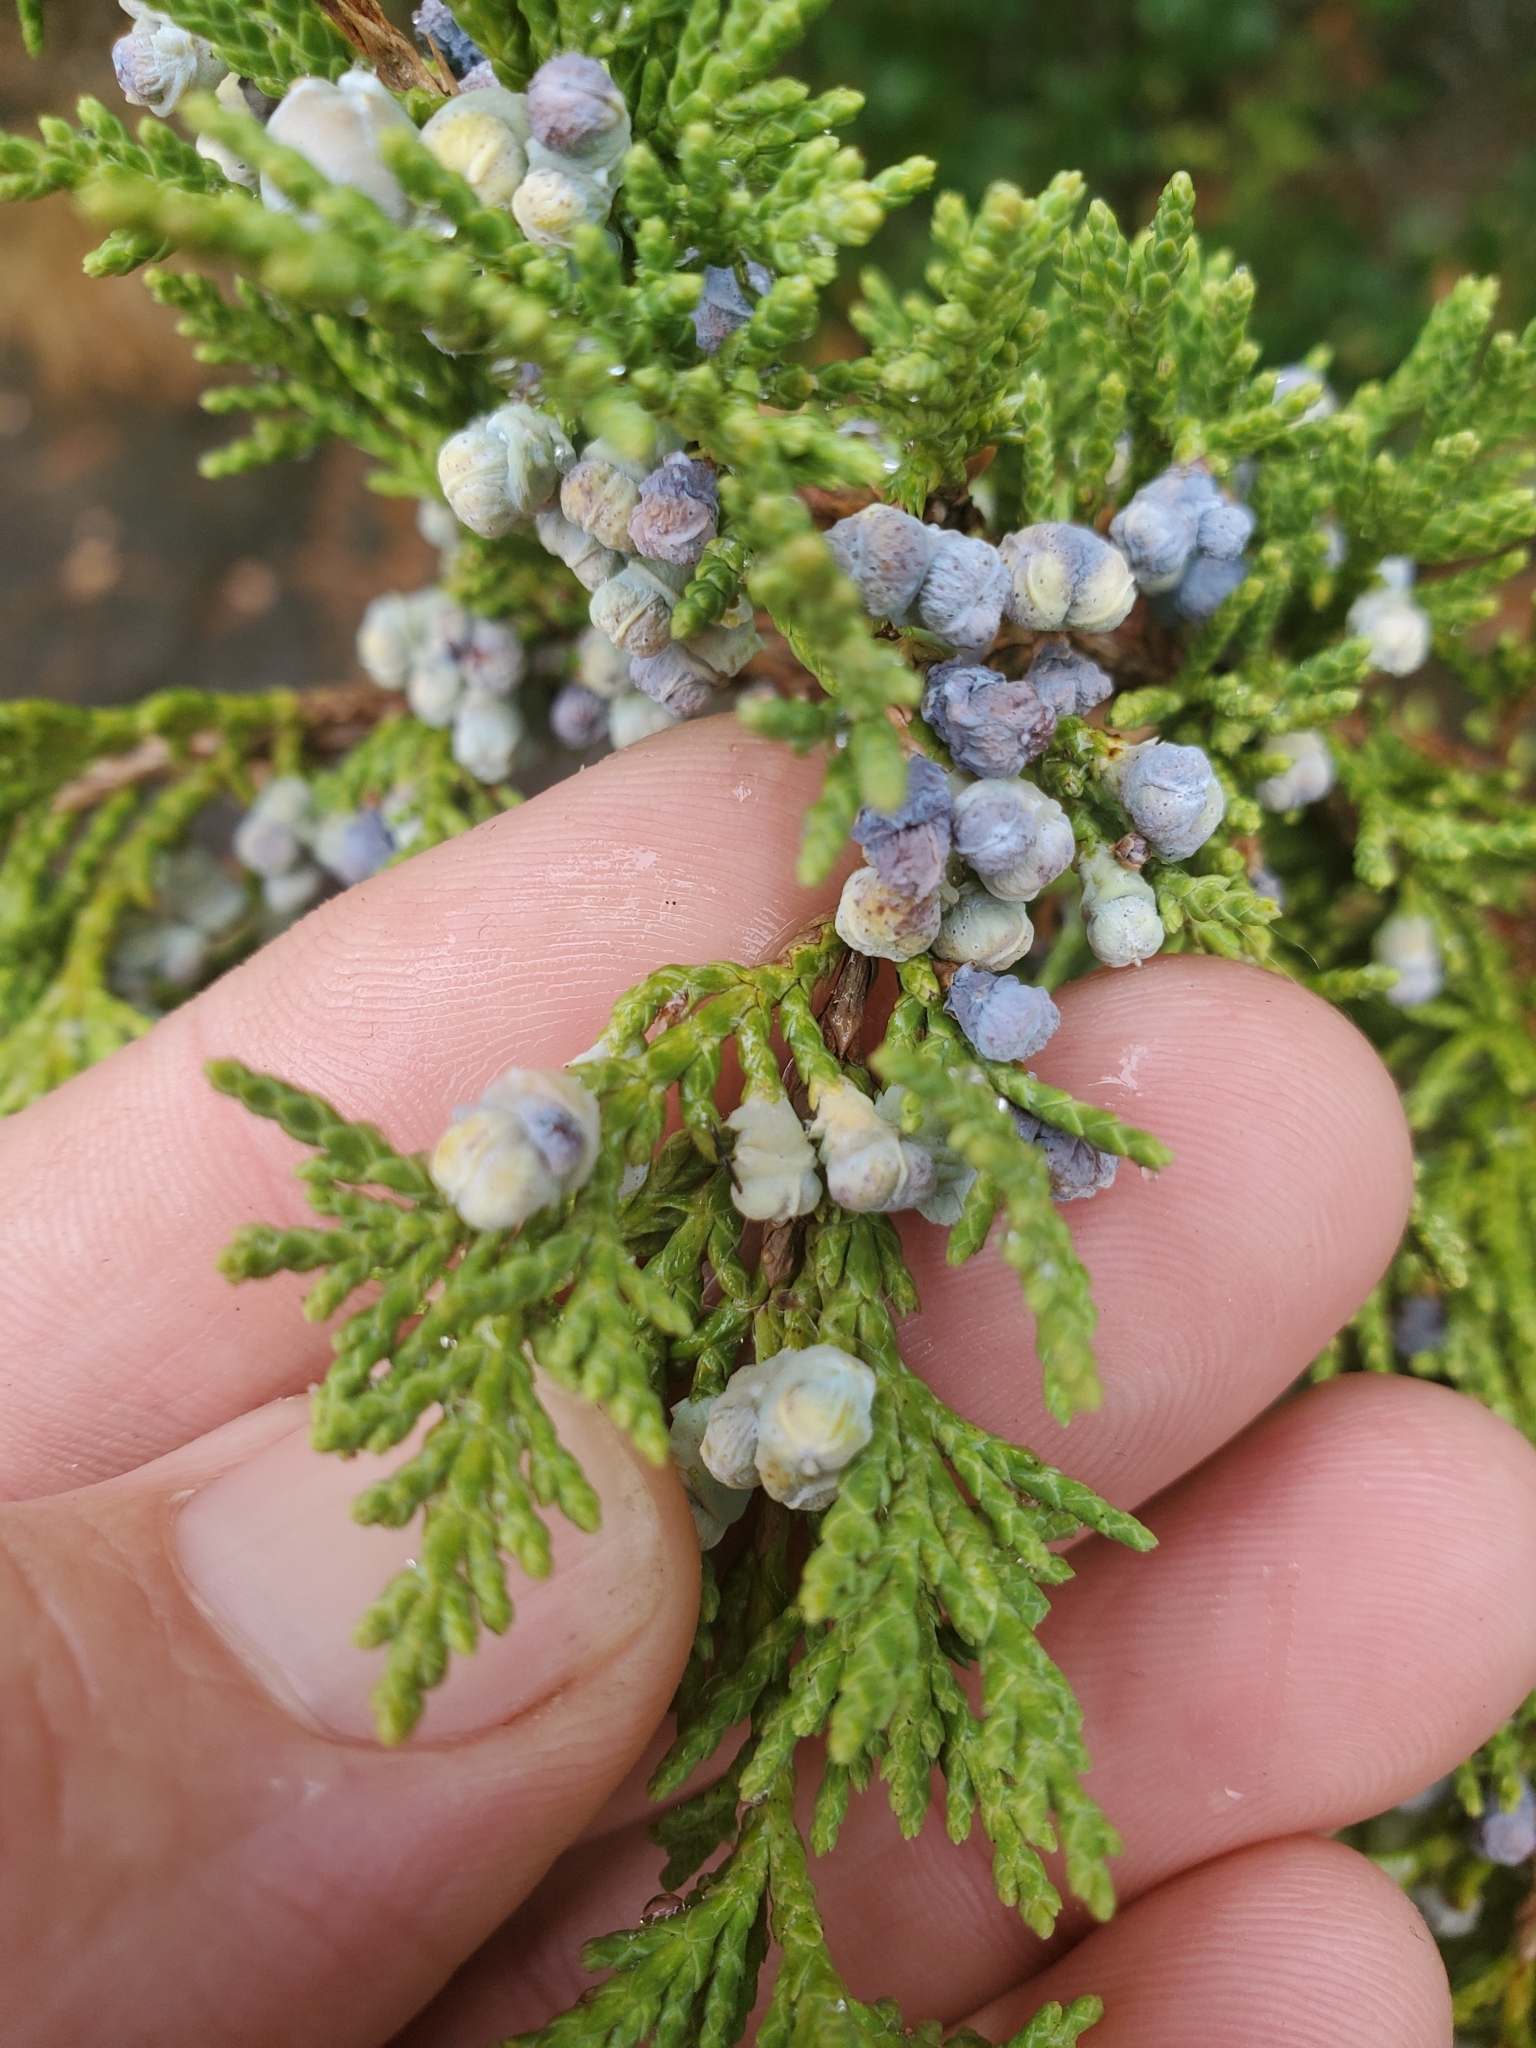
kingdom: Plantae
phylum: Tracheophyta
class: Pinopsida
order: Pinales
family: Cupressaceae
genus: Juniperus
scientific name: Juniperus scopulorum
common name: Rocky mountain juniper
